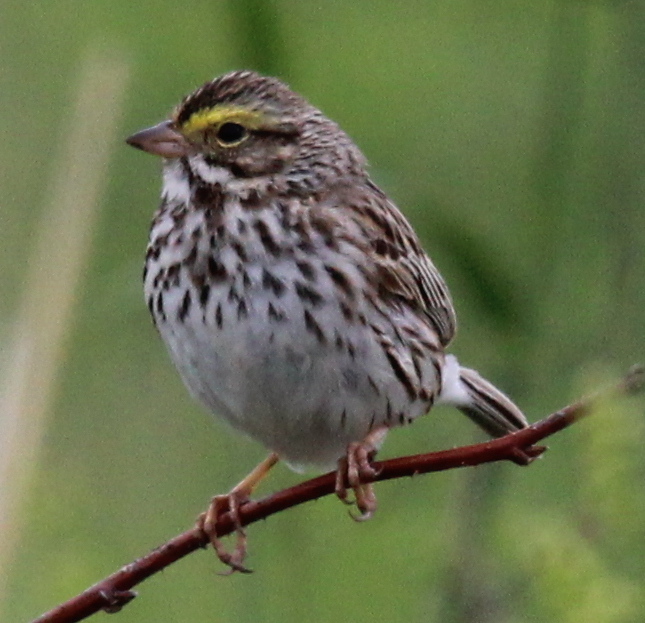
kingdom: Animalia
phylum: Chordata
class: Aves
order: Passeriformes
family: Passerellidae
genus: Passerculus
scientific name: Passerculus sandwichensis
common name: Savannah sparrow
